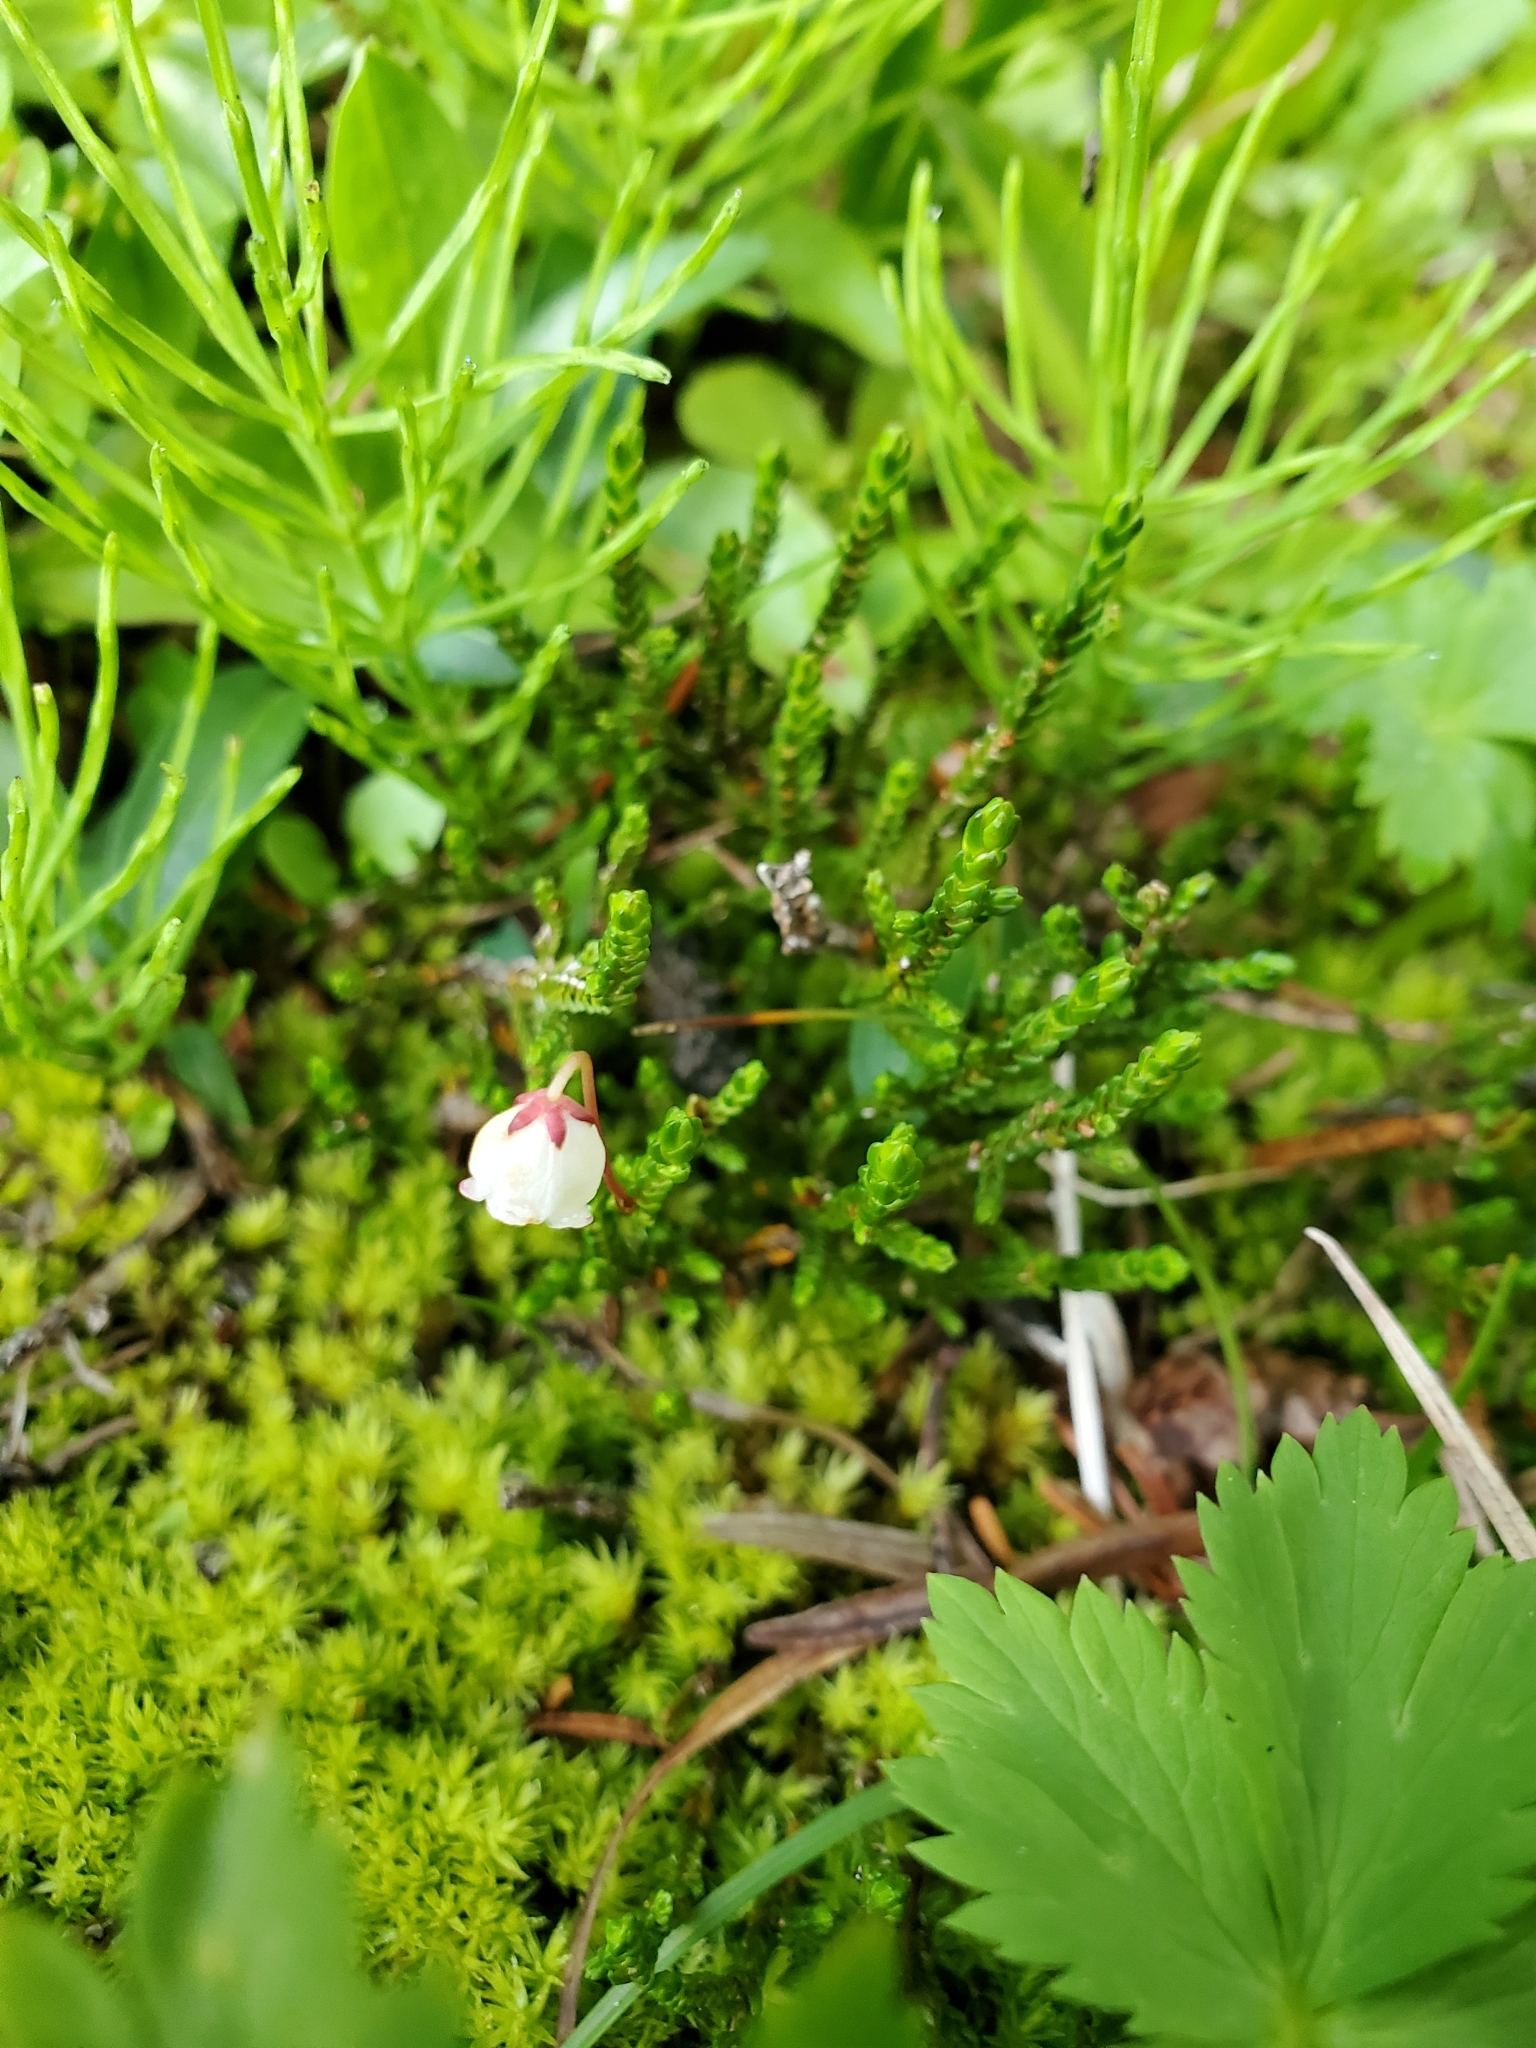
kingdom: Plantae
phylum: Tracheophyta
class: Magnoliopsida
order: Ericales
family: Ericaceae
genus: Cassiope
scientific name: Cassiope mertensiana
